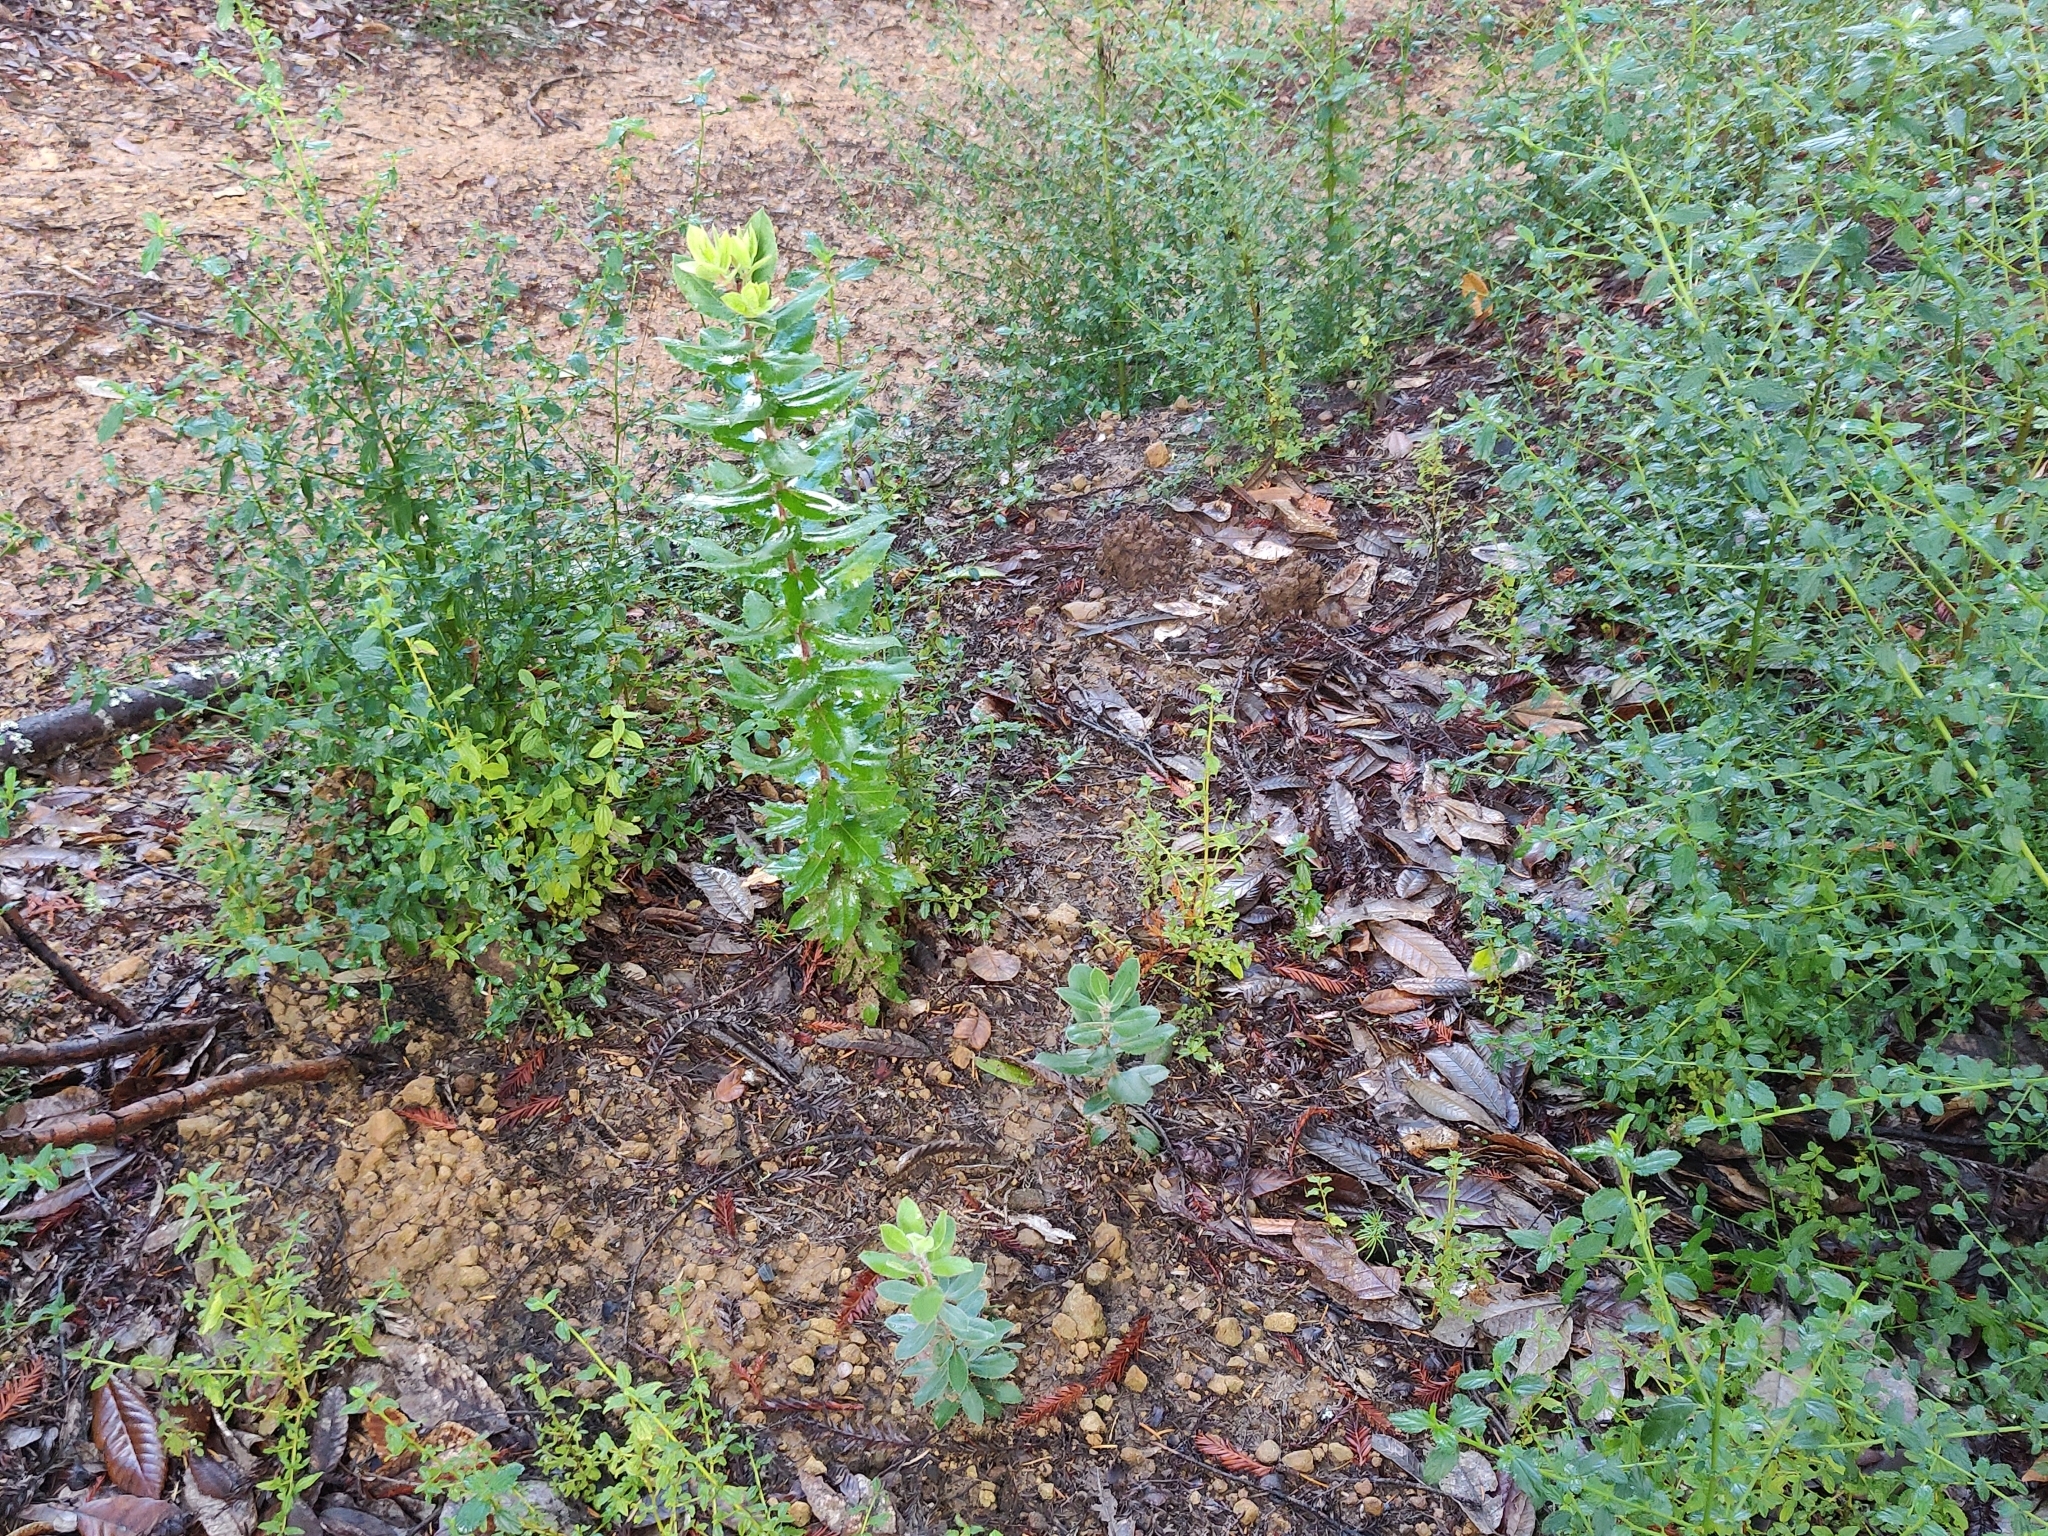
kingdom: Plantae
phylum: Tracheophyta
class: Magnoliopsida
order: Ericales
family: Ericaceae
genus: Arctostaphylos
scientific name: Arctostaphylos andersonii
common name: Santa cruz manzanita
